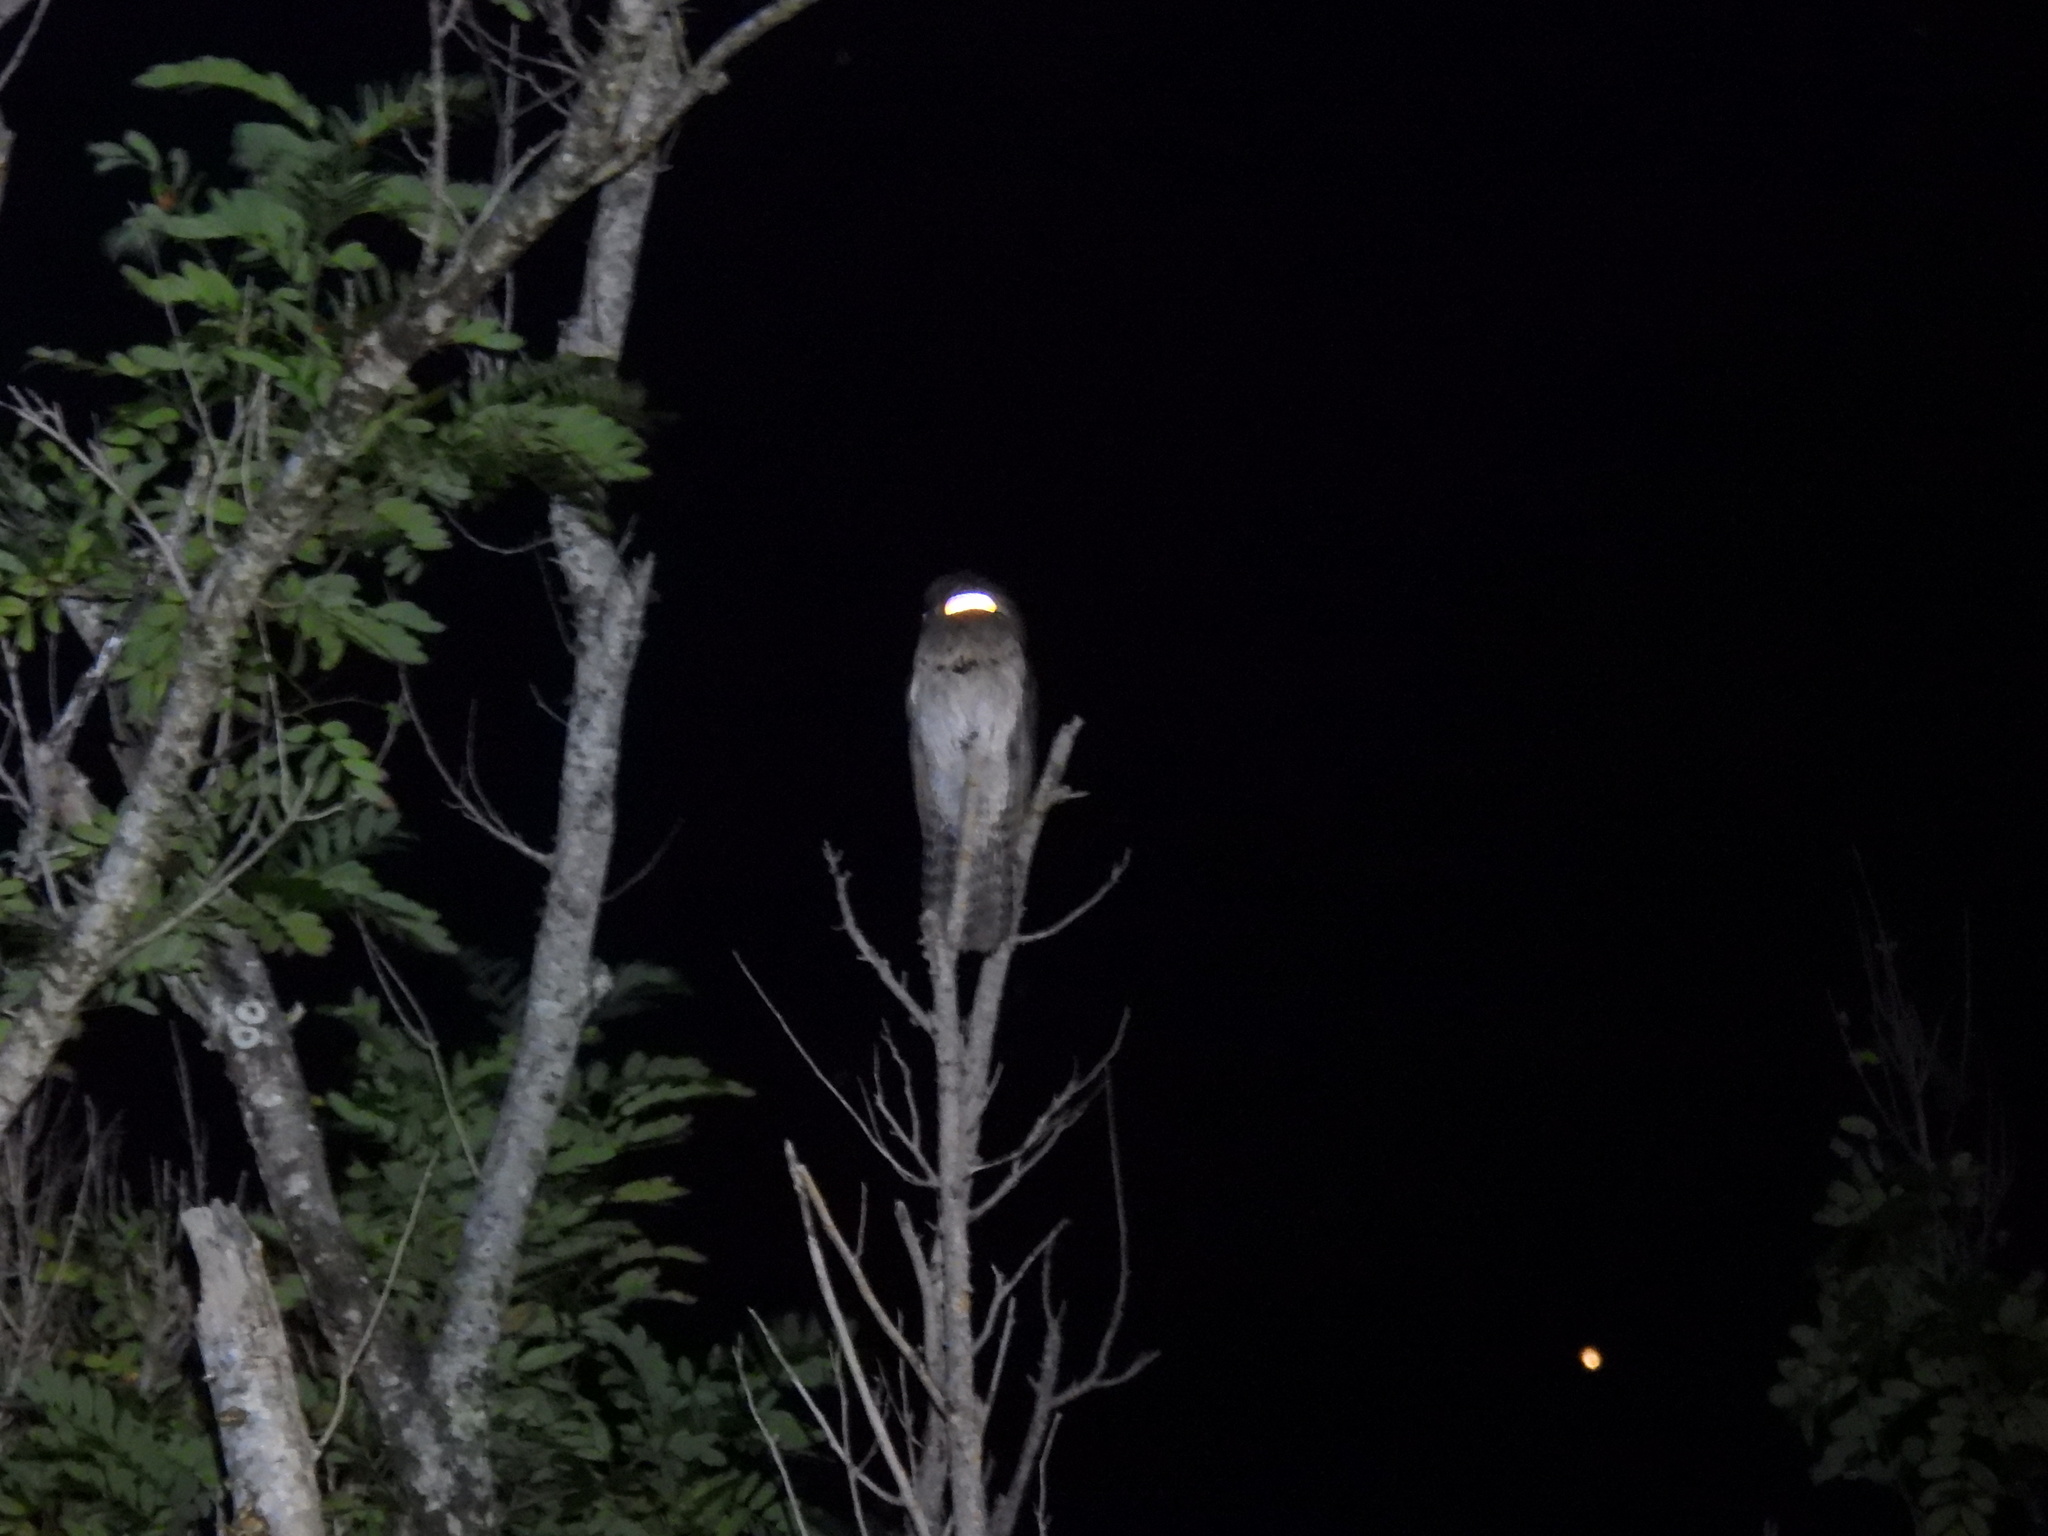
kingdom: Animalia
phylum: Chordata
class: Aves
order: Nyctibiiformes
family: Nyctibiidae
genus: Nyctibius
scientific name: Nyctibius jamaicensis
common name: Northern potoo
